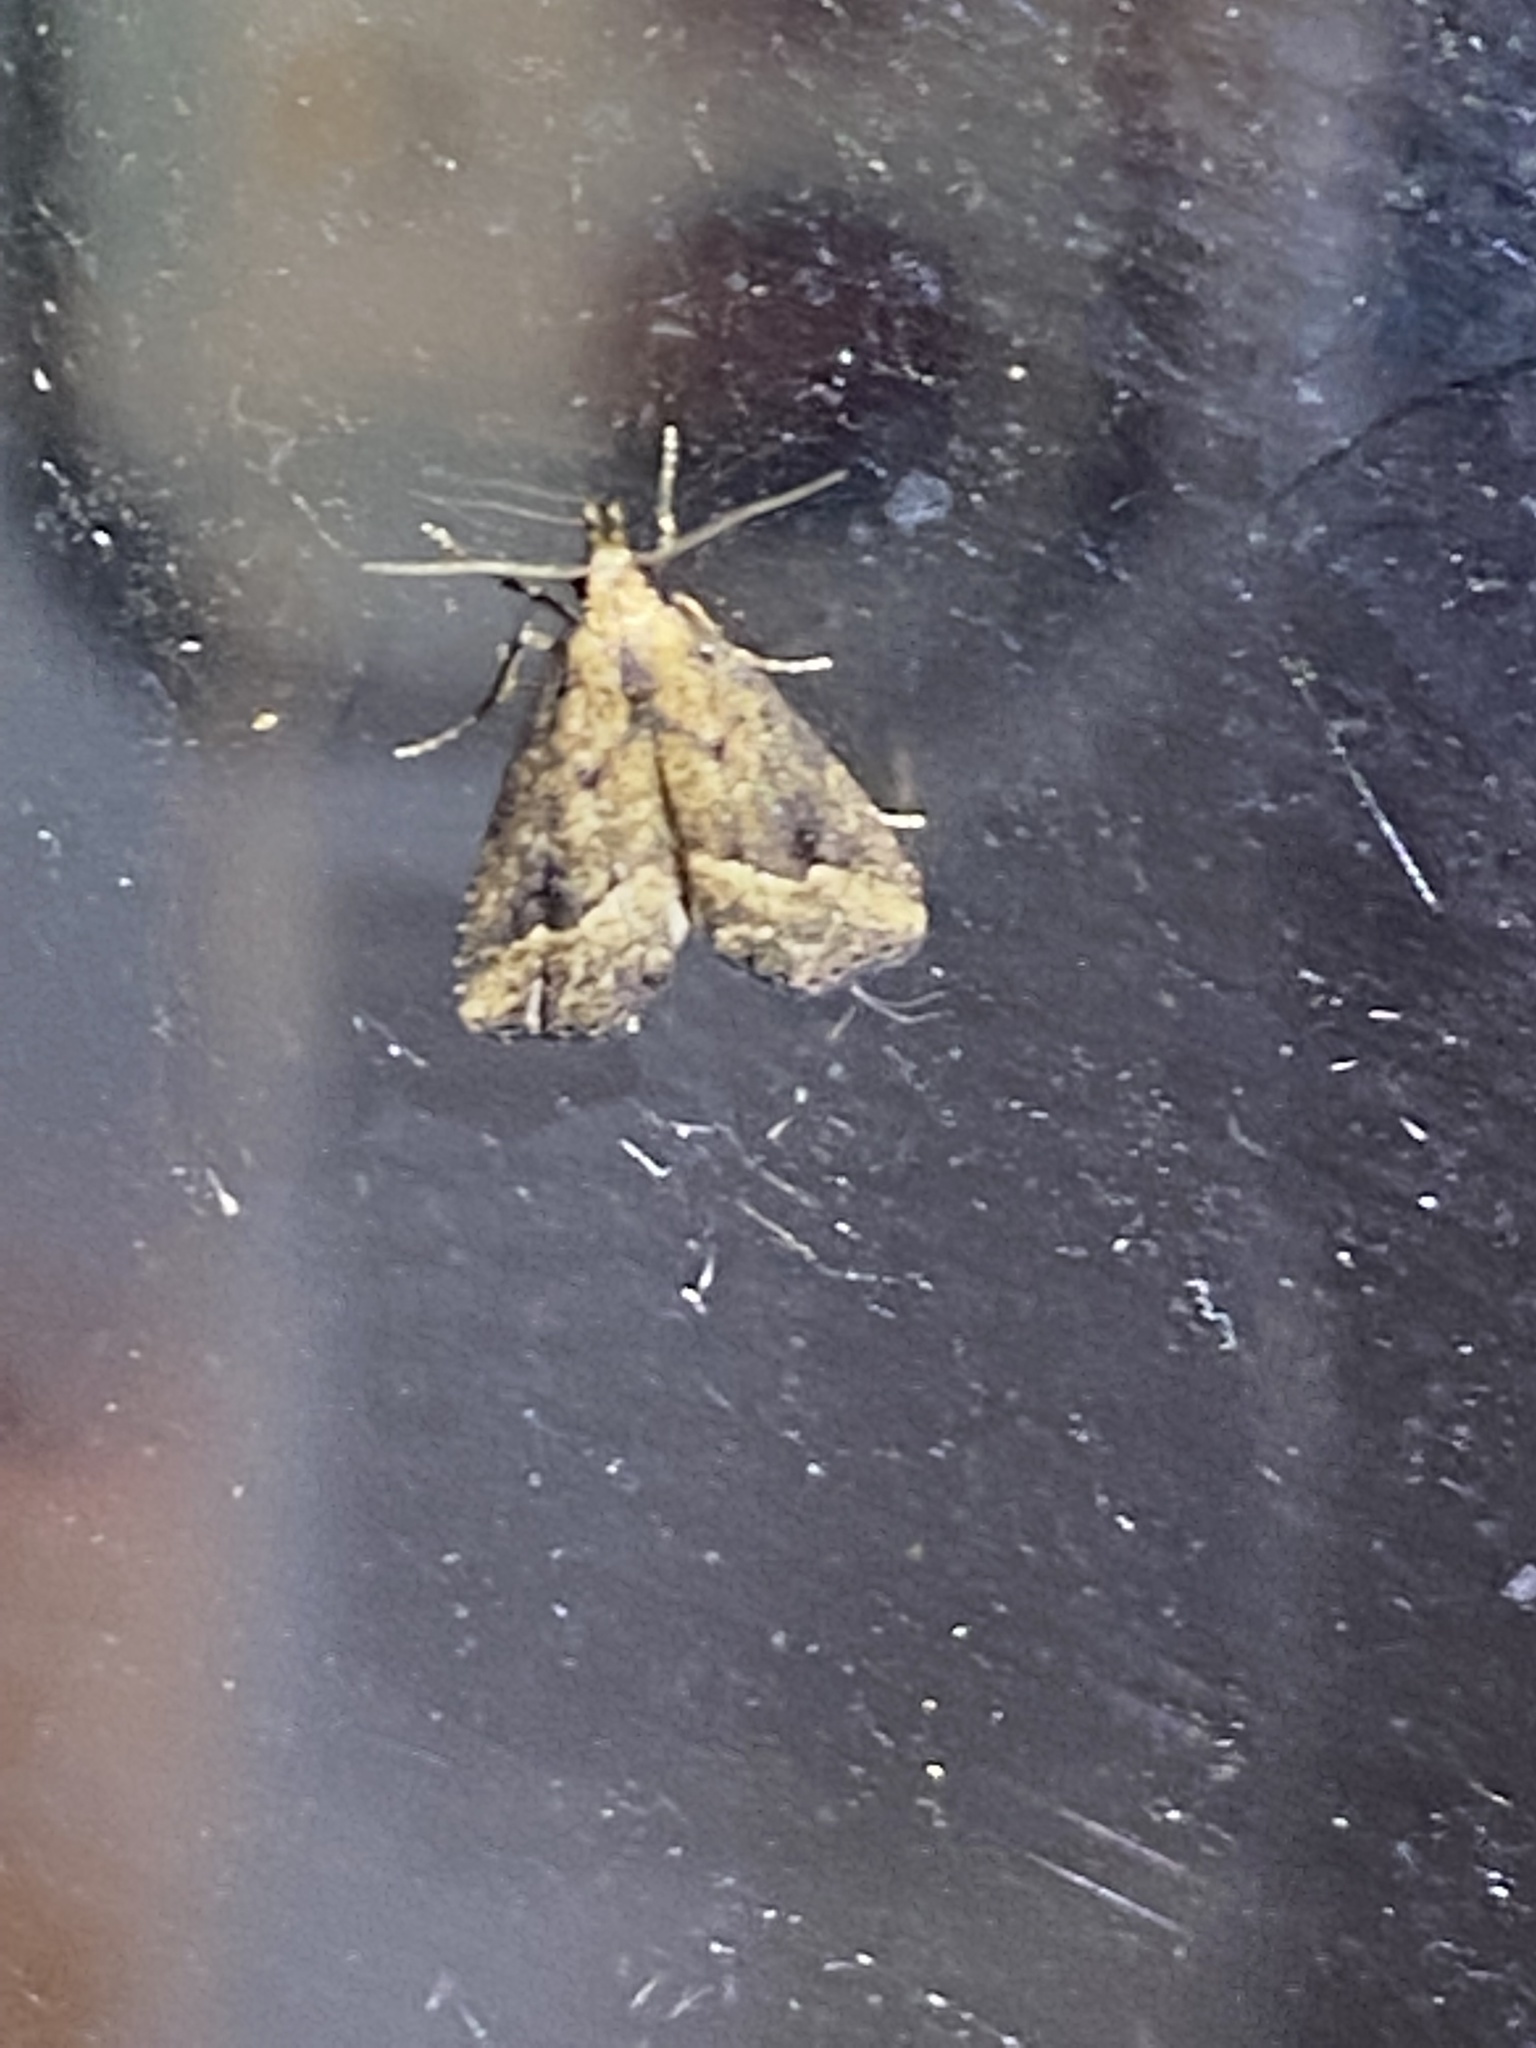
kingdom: Animalia
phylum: Arthropoda
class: Insecta
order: Lepidoptera
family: Erebidae
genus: Schrankia
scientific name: Schrankia
